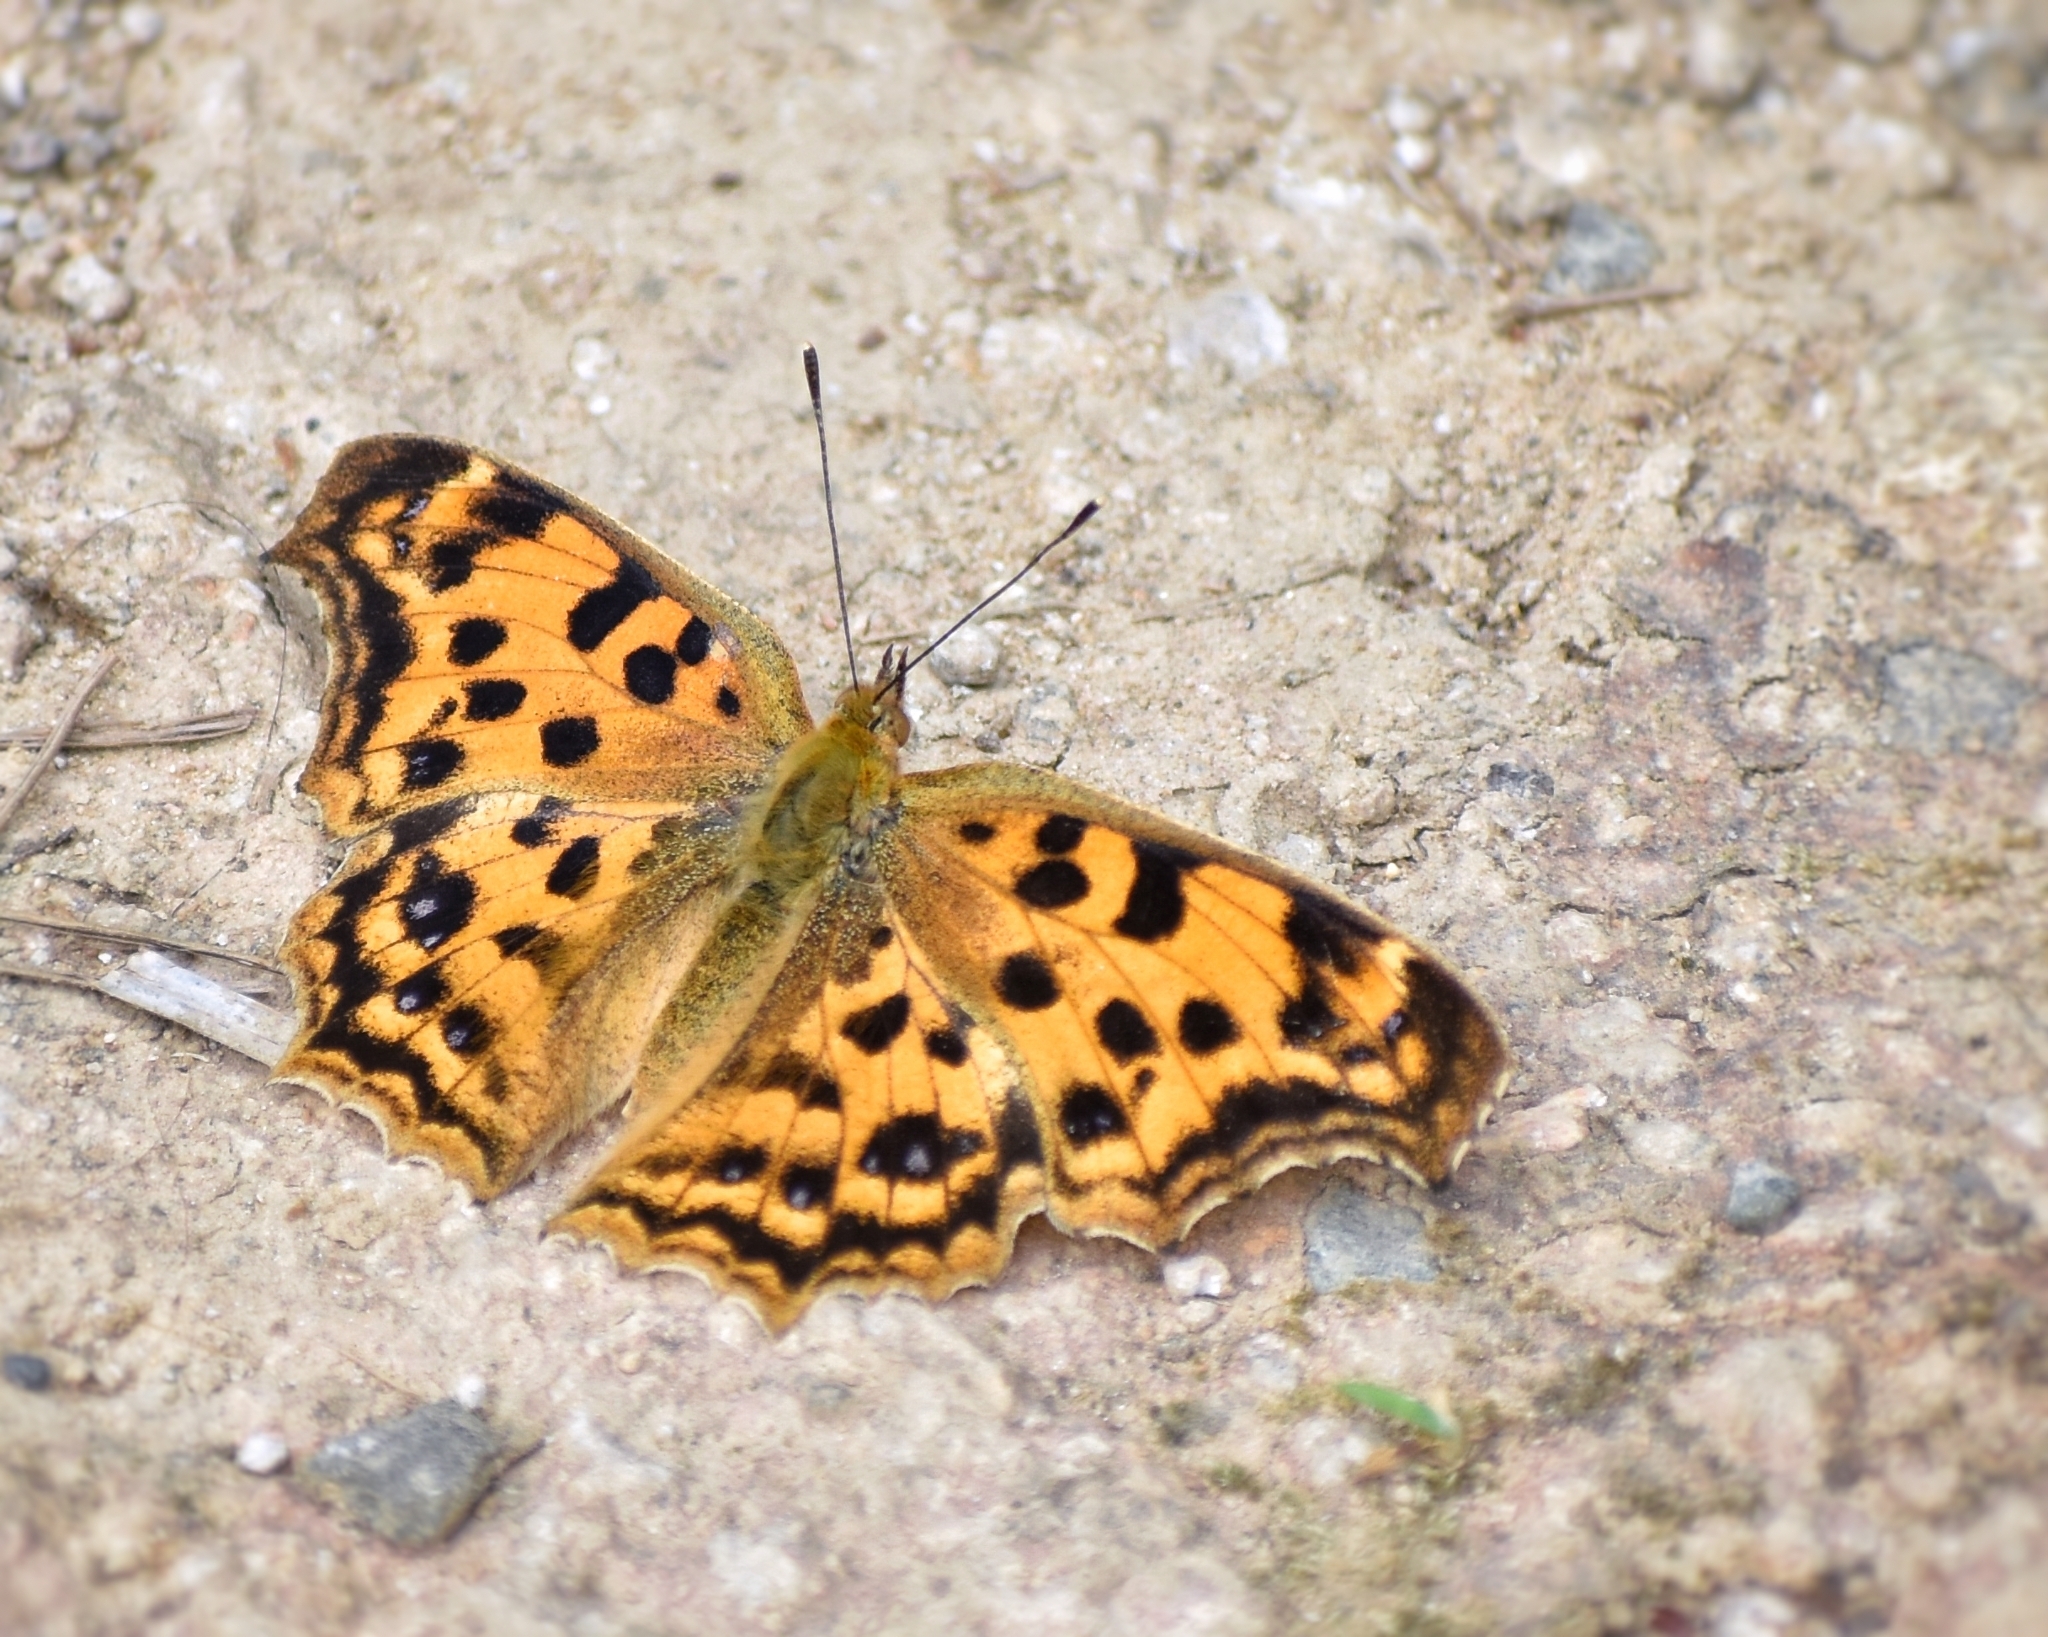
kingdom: Animalia
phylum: Arthropoda
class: Insecta
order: Lepidoptera
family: Nymphalidae
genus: Polygonia
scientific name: Polygonia c-aureum
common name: Asian comma
